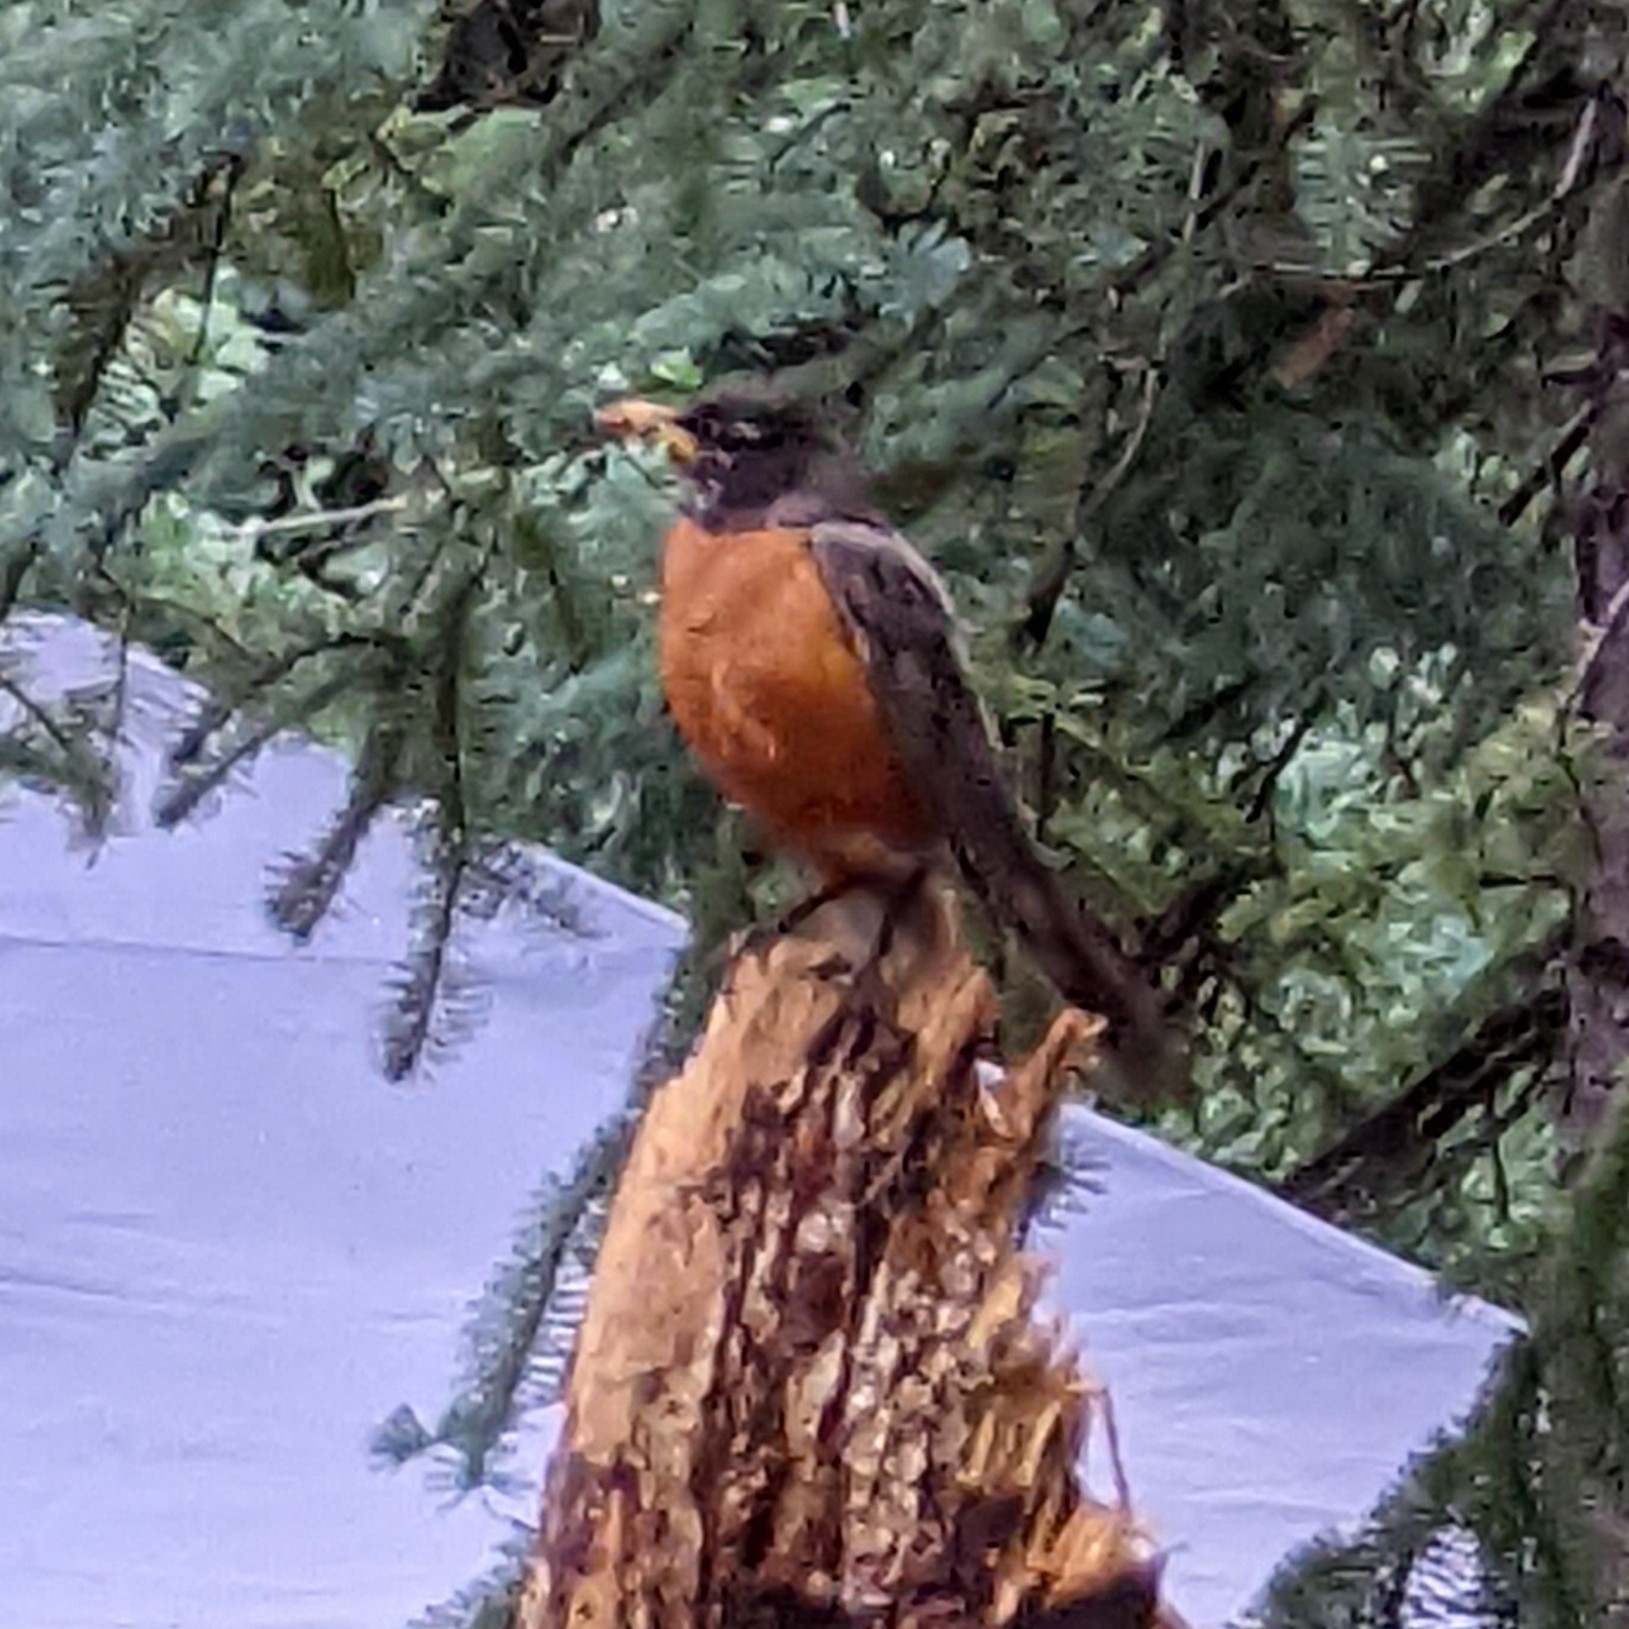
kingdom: Animalia
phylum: Chordata
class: Aves
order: Passeriformes
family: Turdidae
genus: Turdus
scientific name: Turdus migratorius
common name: American robin
